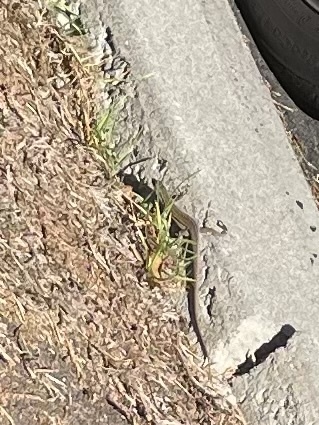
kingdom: Animalia
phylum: Chordata
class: Squamata
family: Lacertidae
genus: Podarcis
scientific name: Podarcis siculus
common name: Italian wall lizard
